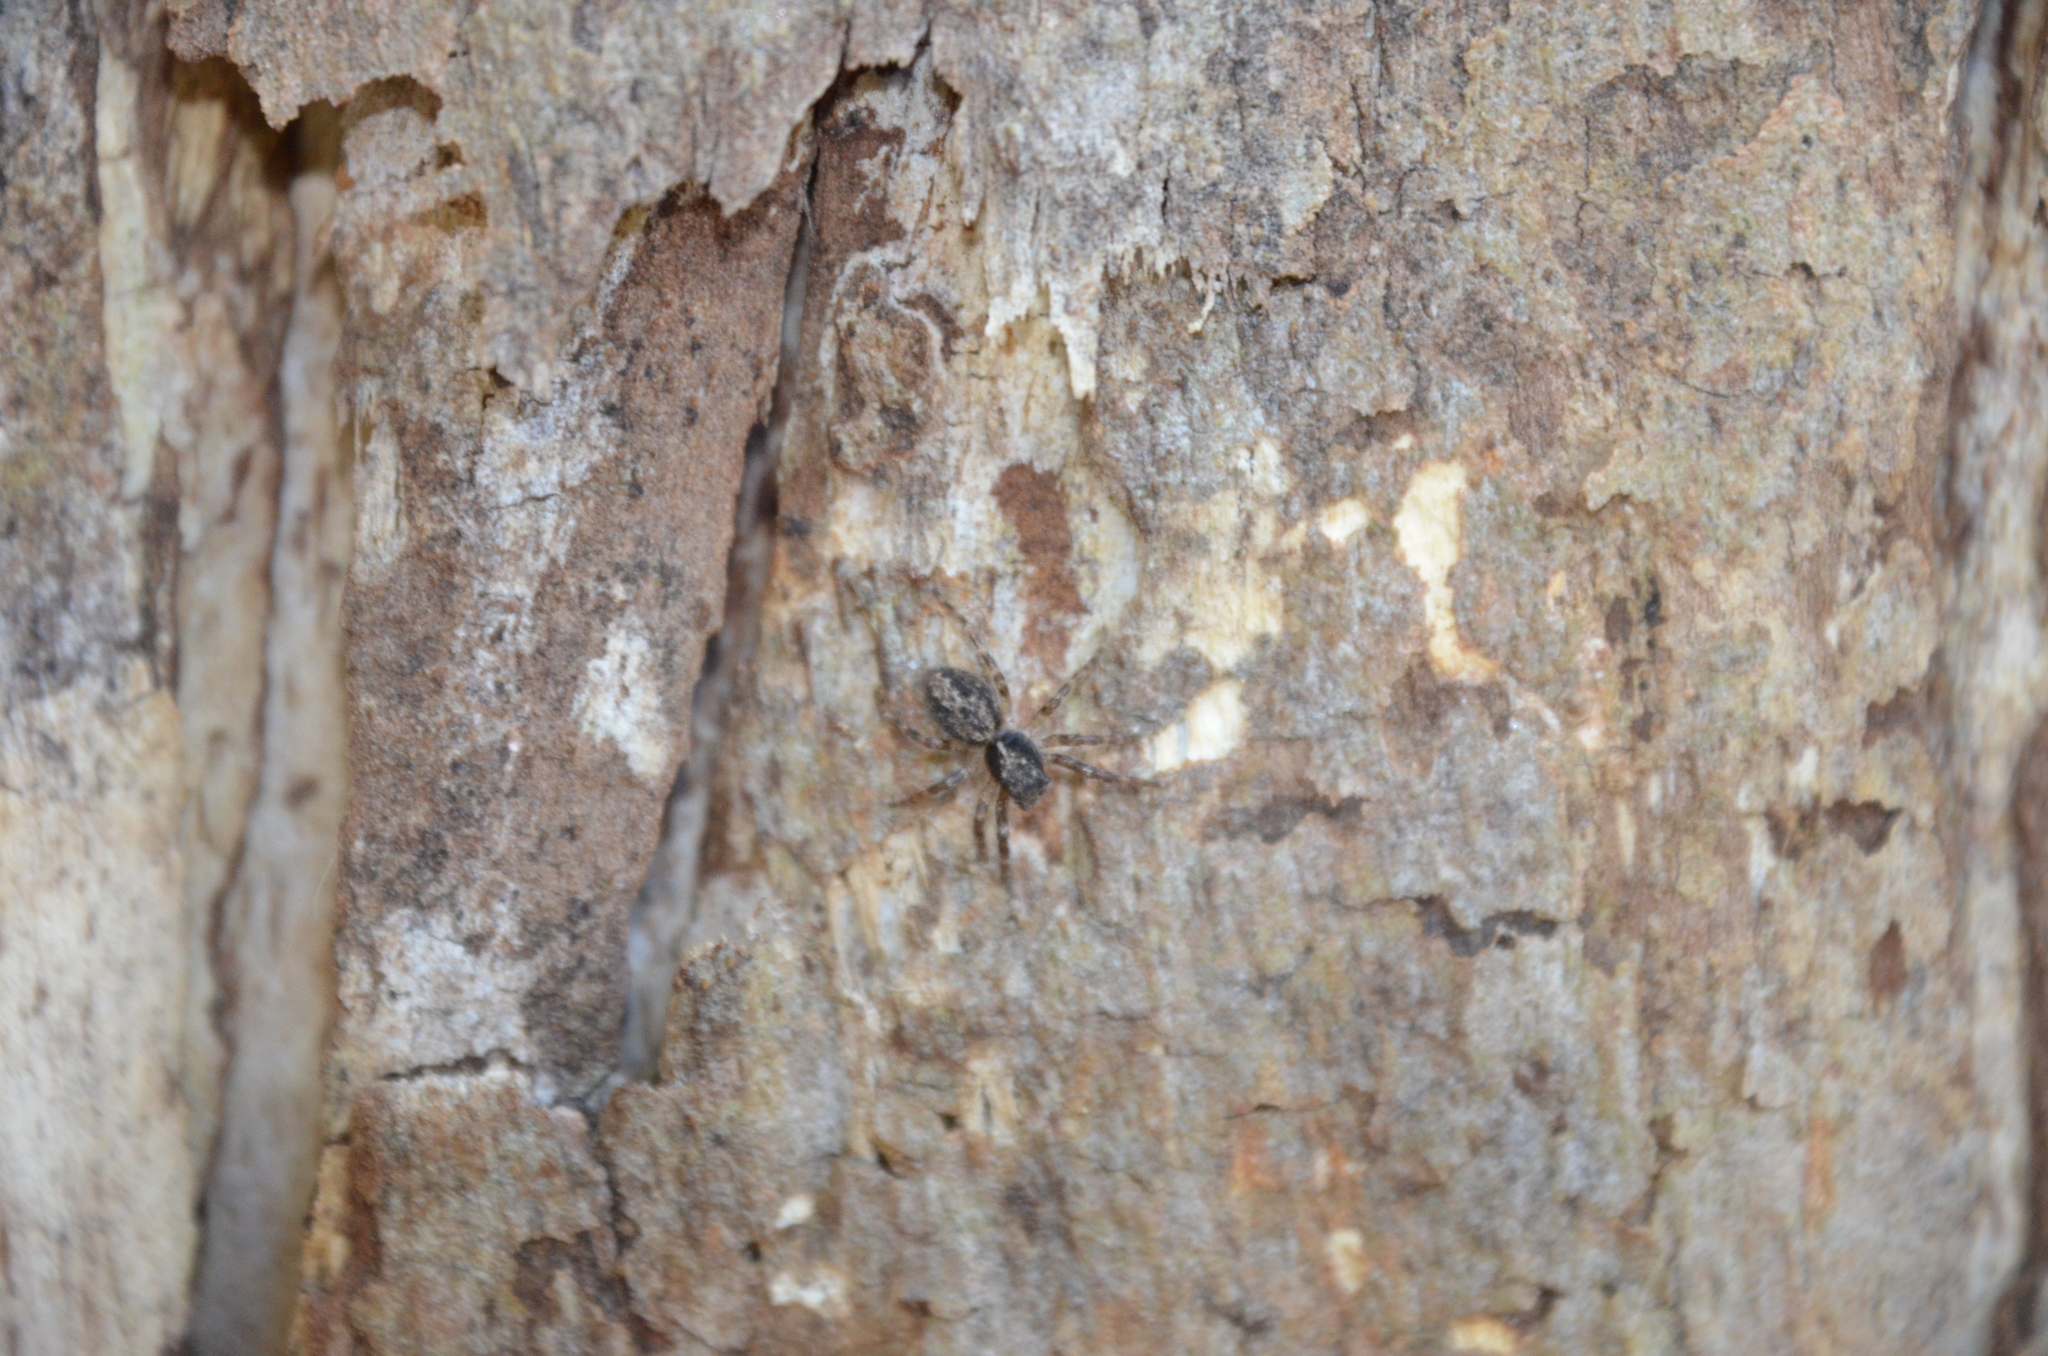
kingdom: Animalia
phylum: Arthropoda
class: Arachnida
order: Araneae
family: Salticidae
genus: Titanattus
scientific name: Titanattus andinus
